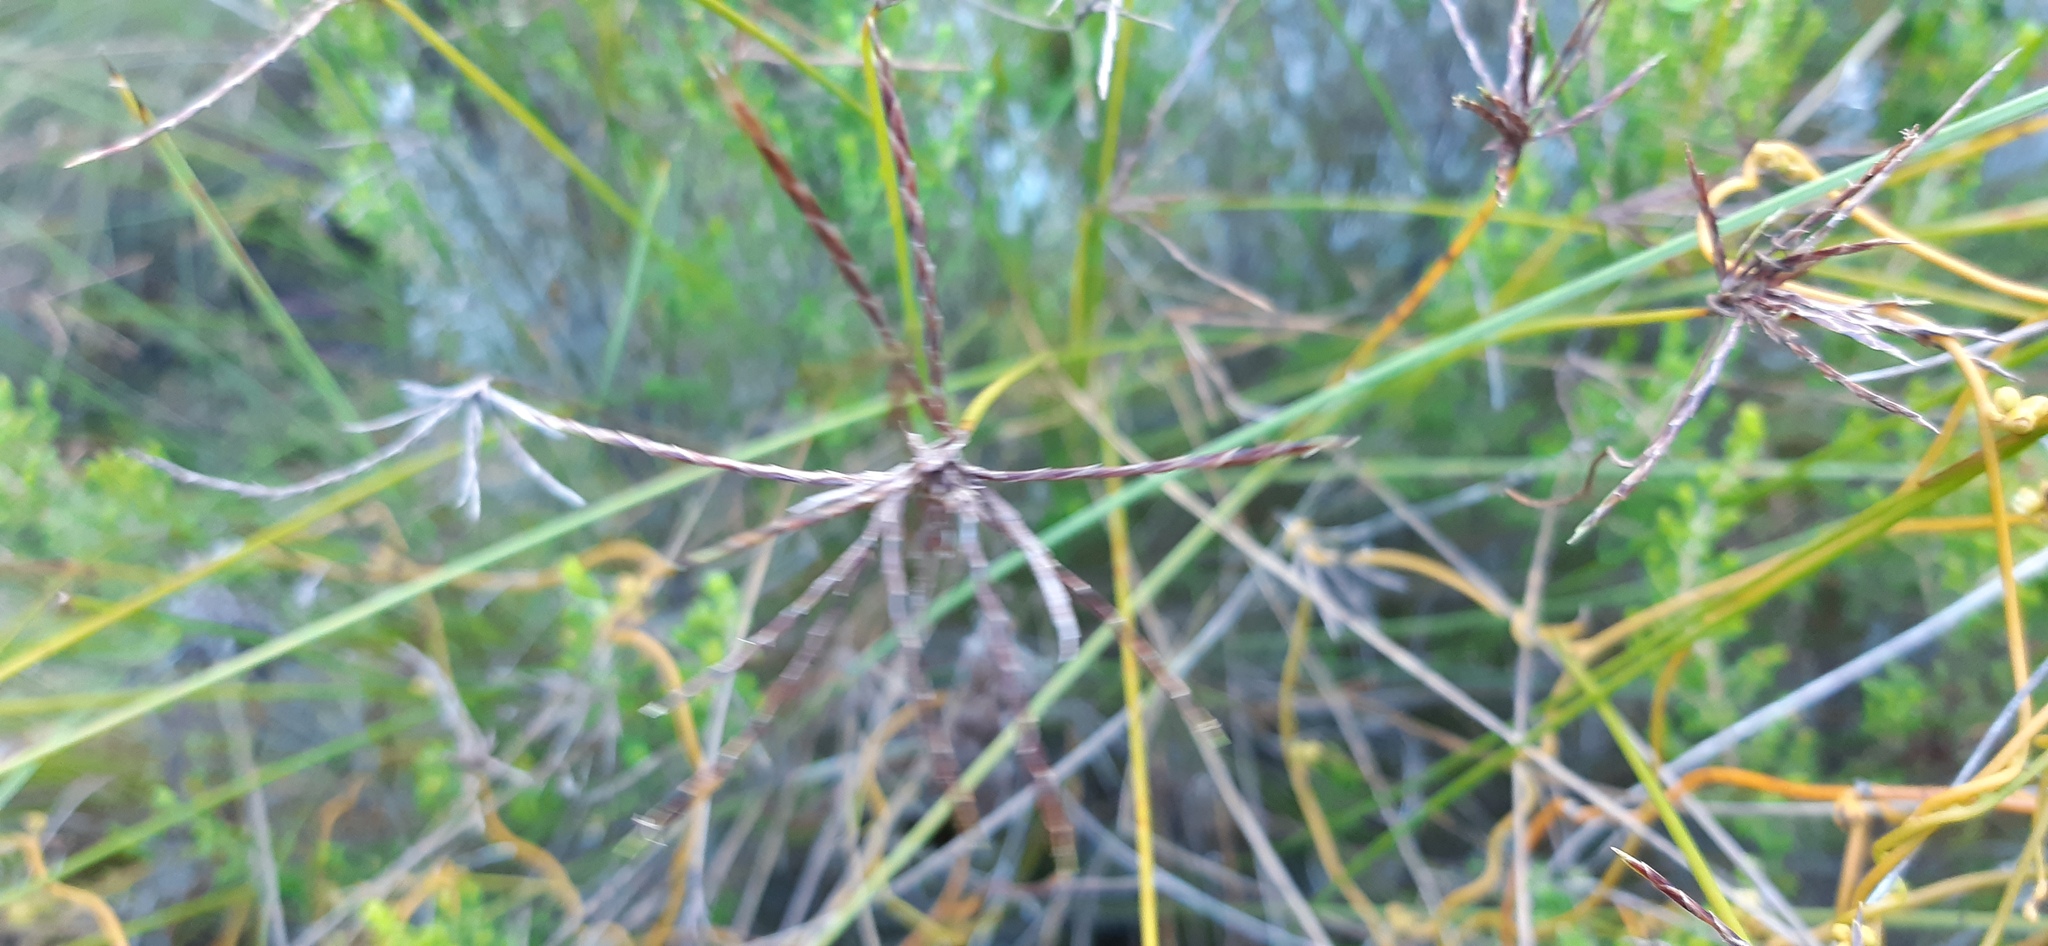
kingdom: Plantae
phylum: Tracheophyta
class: Liliopsida
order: Poales
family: Cyperaceae
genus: Ficinia
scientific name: Ficinia distans
